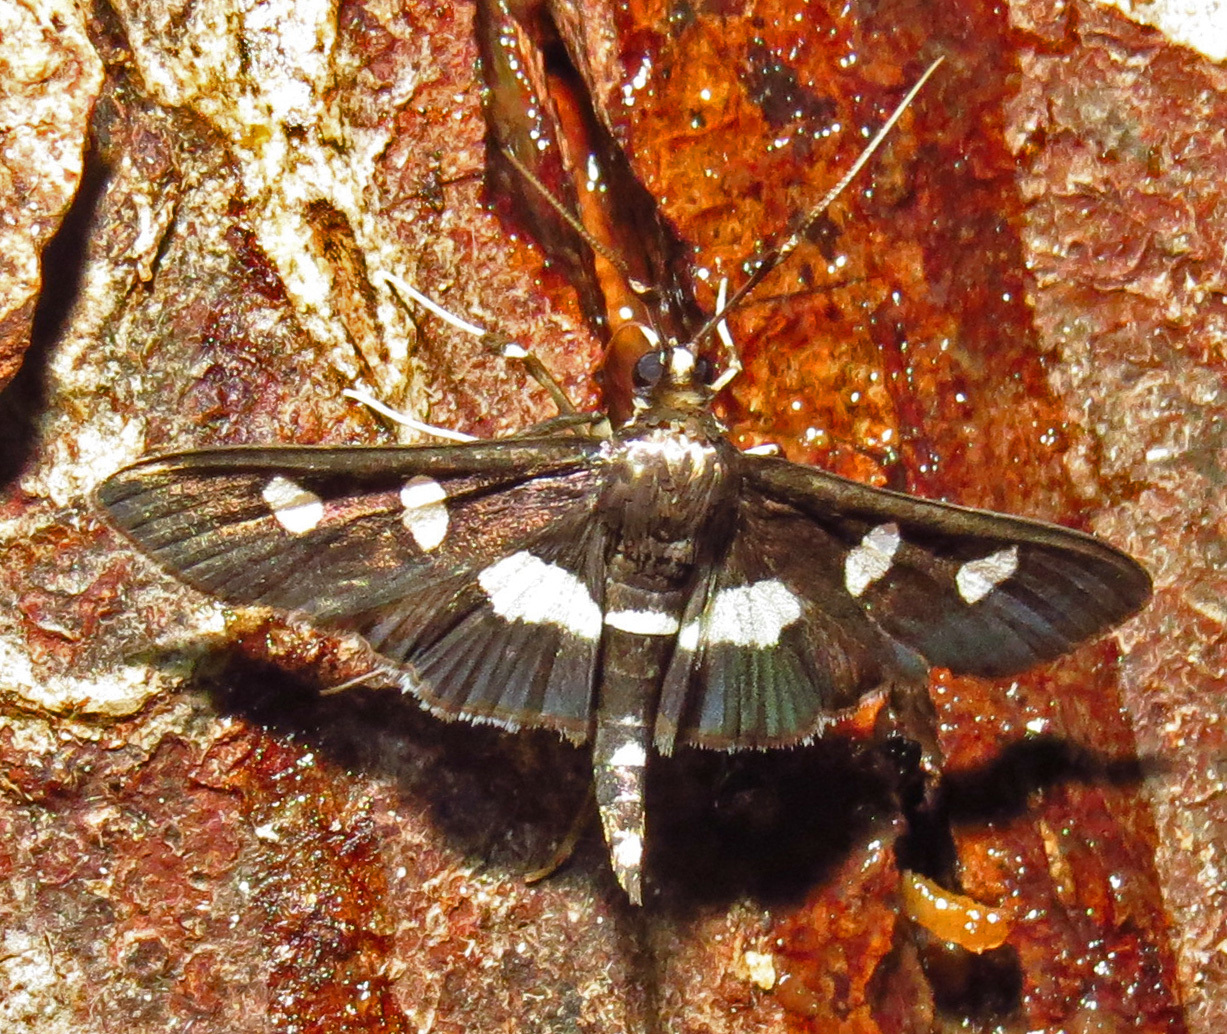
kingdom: Animalia
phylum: Arthropoda
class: Insecta
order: Lepidoptera
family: Crambidae
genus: Desmia
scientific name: Desmia
